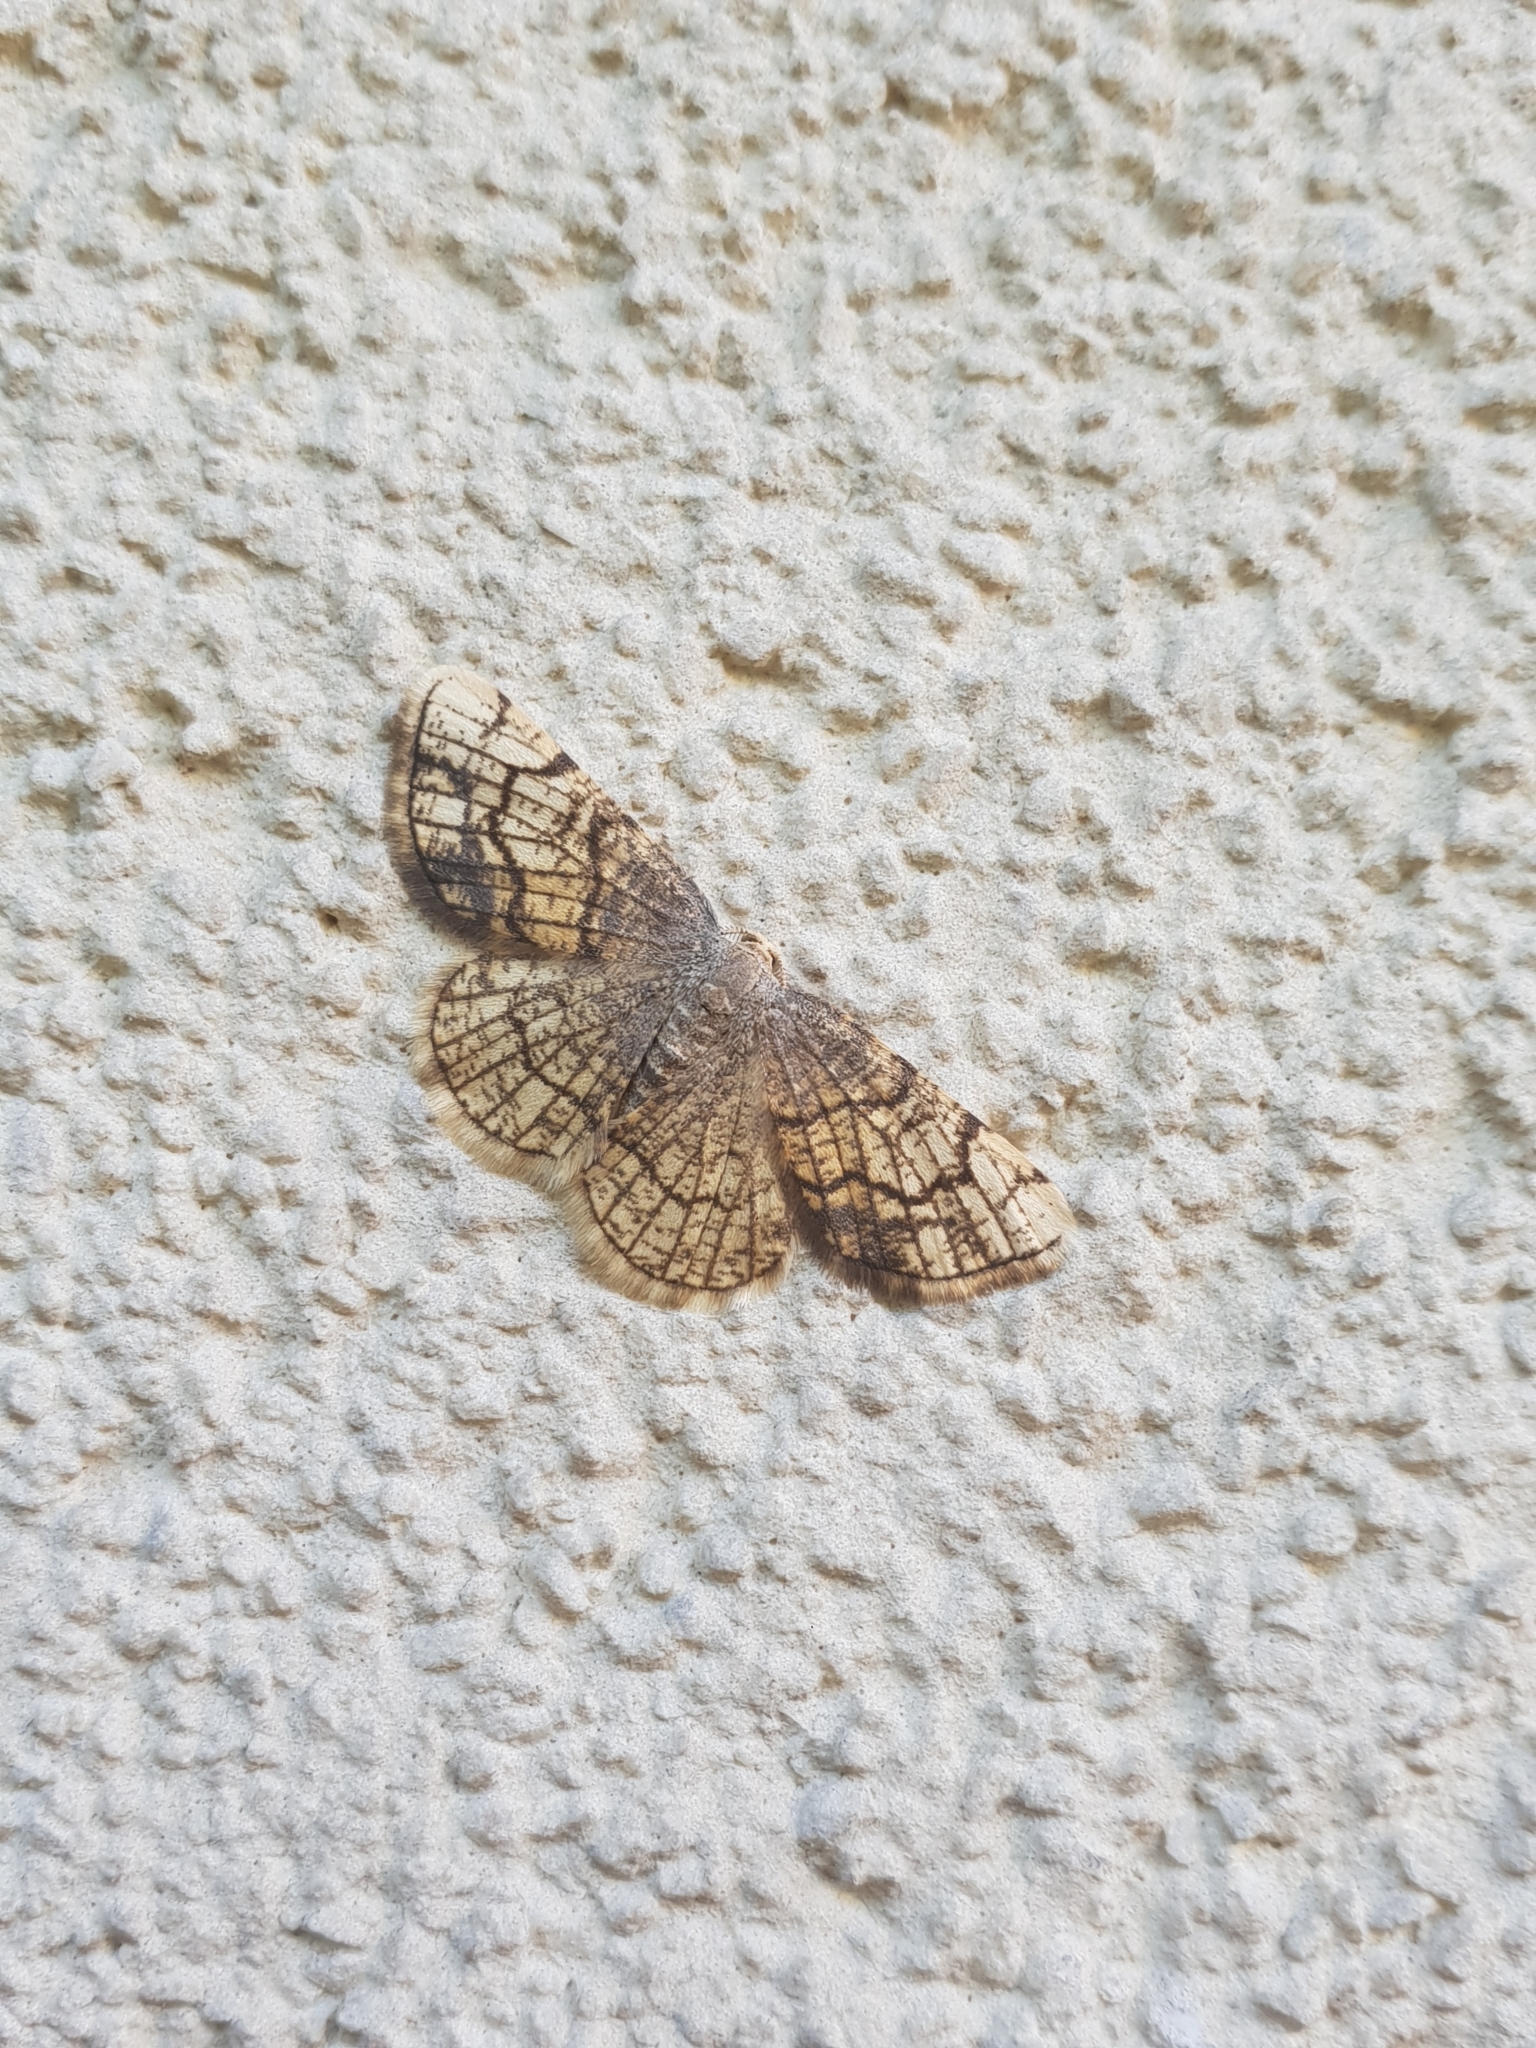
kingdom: Animalia
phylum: Arthropoda
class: Insecta
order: Lepidoptera
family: Geometridae
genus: Stegania
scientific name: Stegania dilectaria
